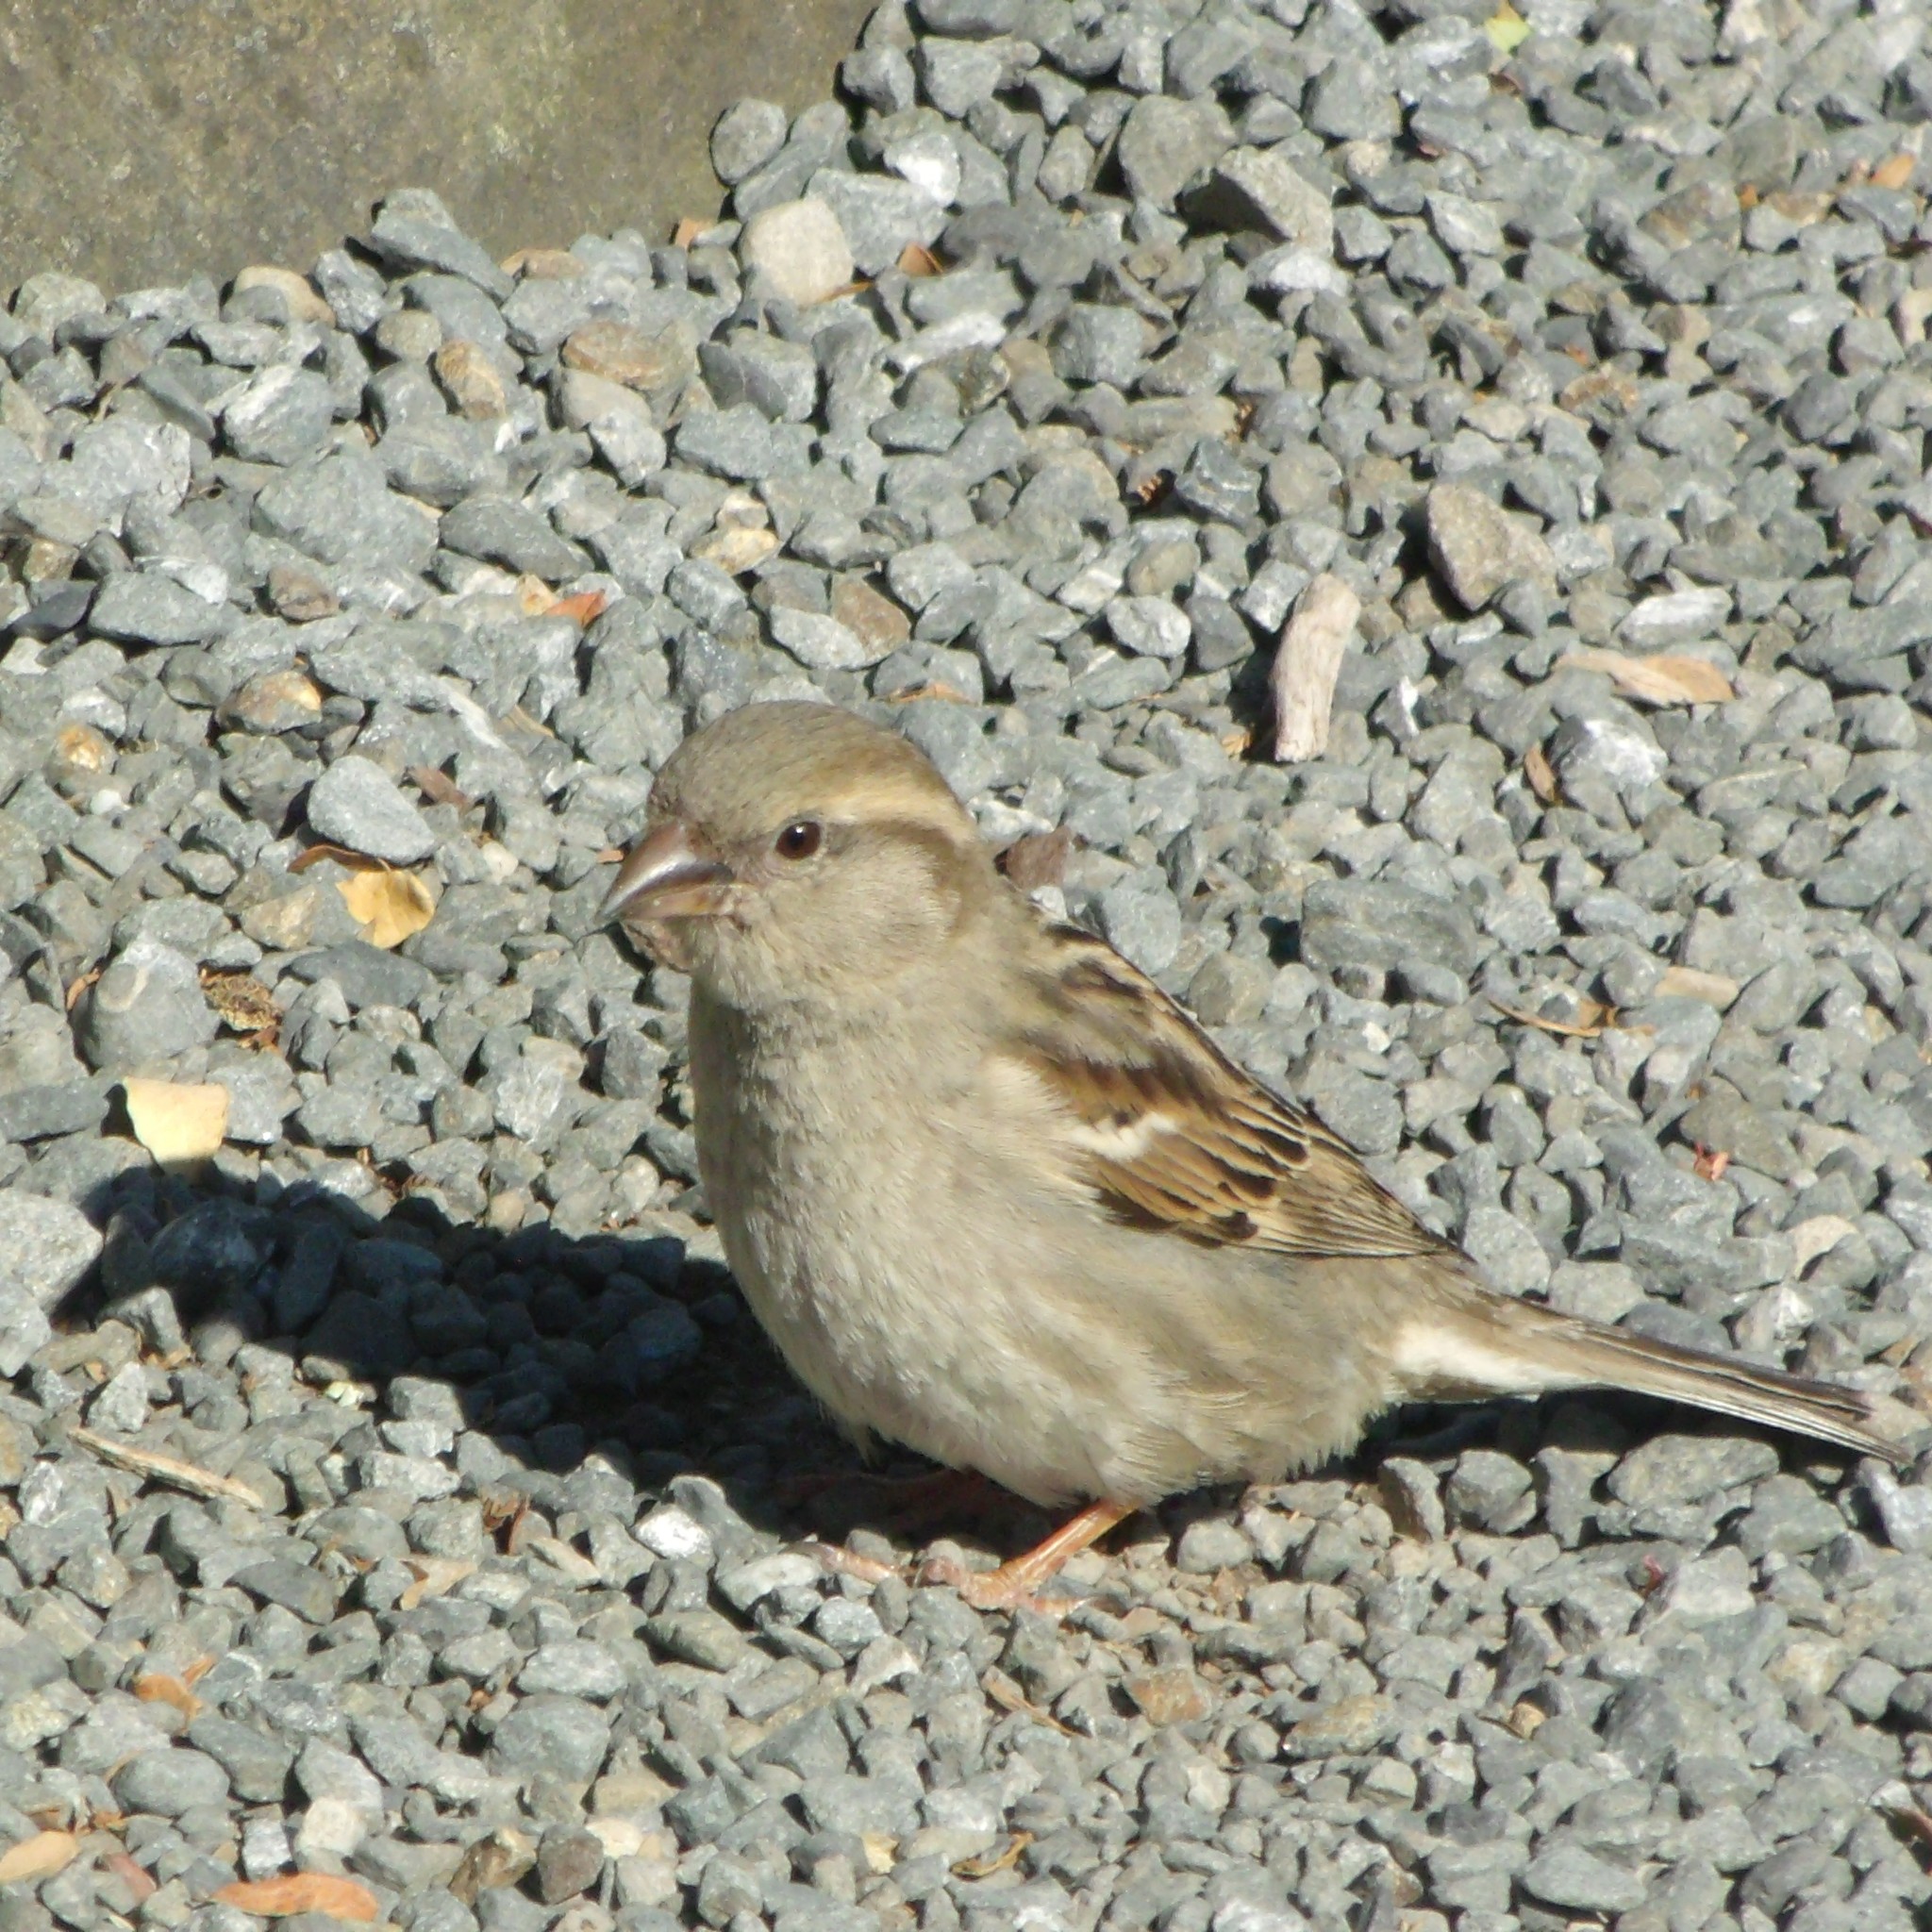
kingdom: Animalia
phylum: Chordata
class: Aves
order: Passeriformes
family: Passeridae
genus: Passer
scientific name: Passer domesticus
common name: House sparrow
